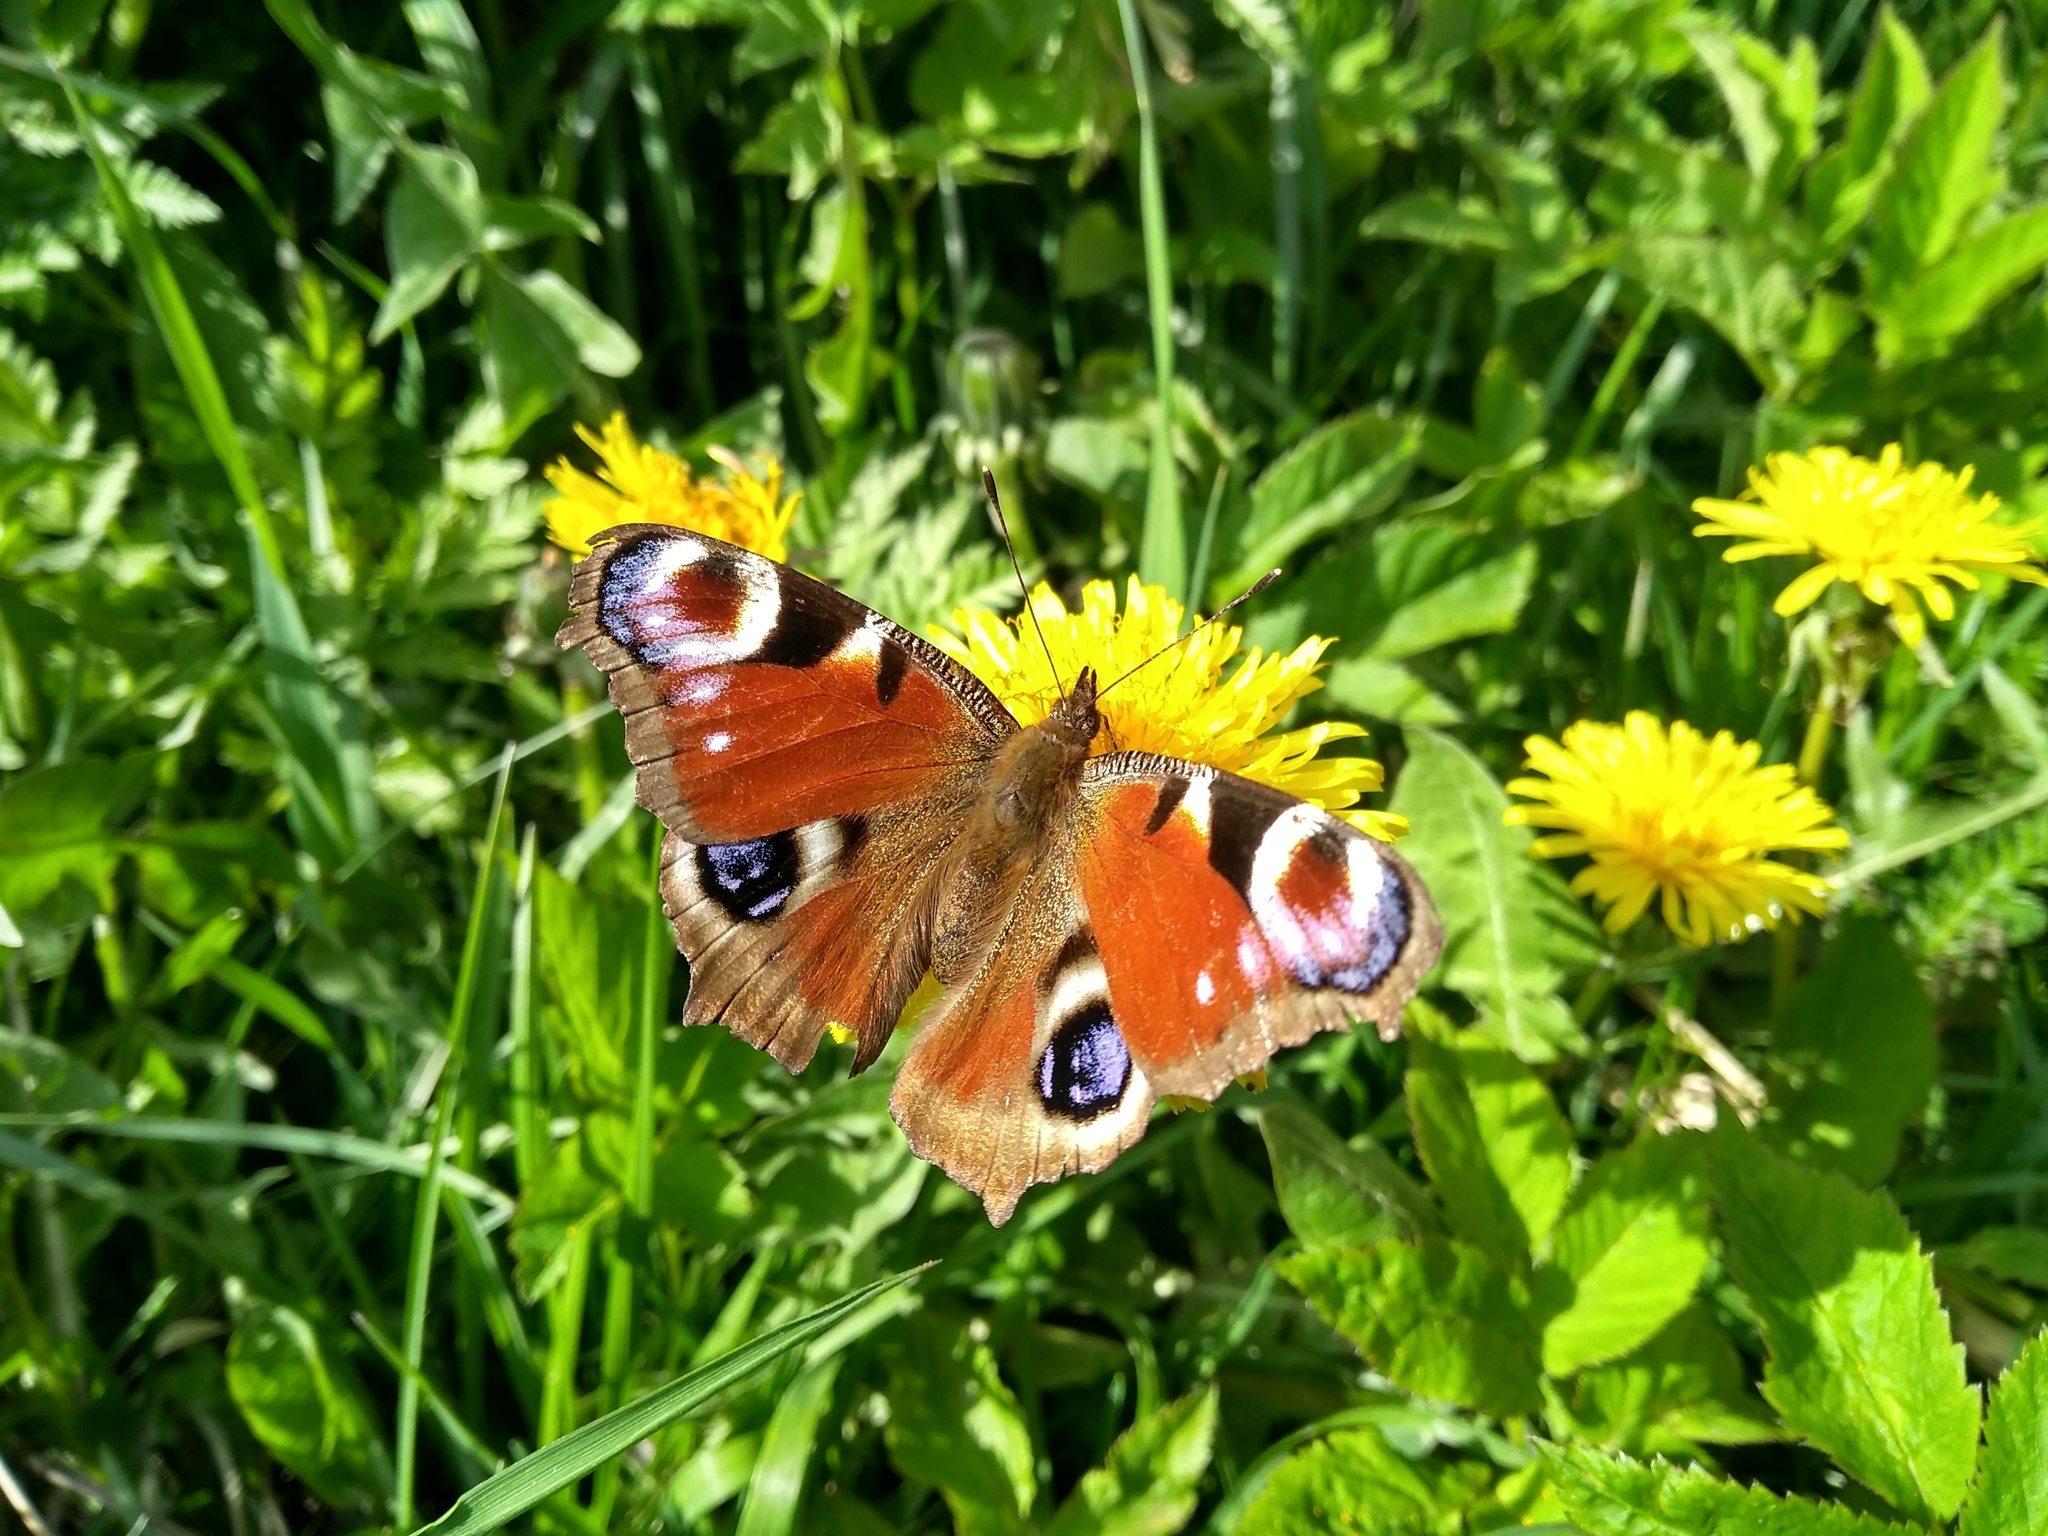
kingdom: Animalia
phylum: Arthropoda
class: Insecta
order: Lepidoptera
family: Nymphalidae
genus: Aglais
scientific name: Aglais io
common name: Peacock
